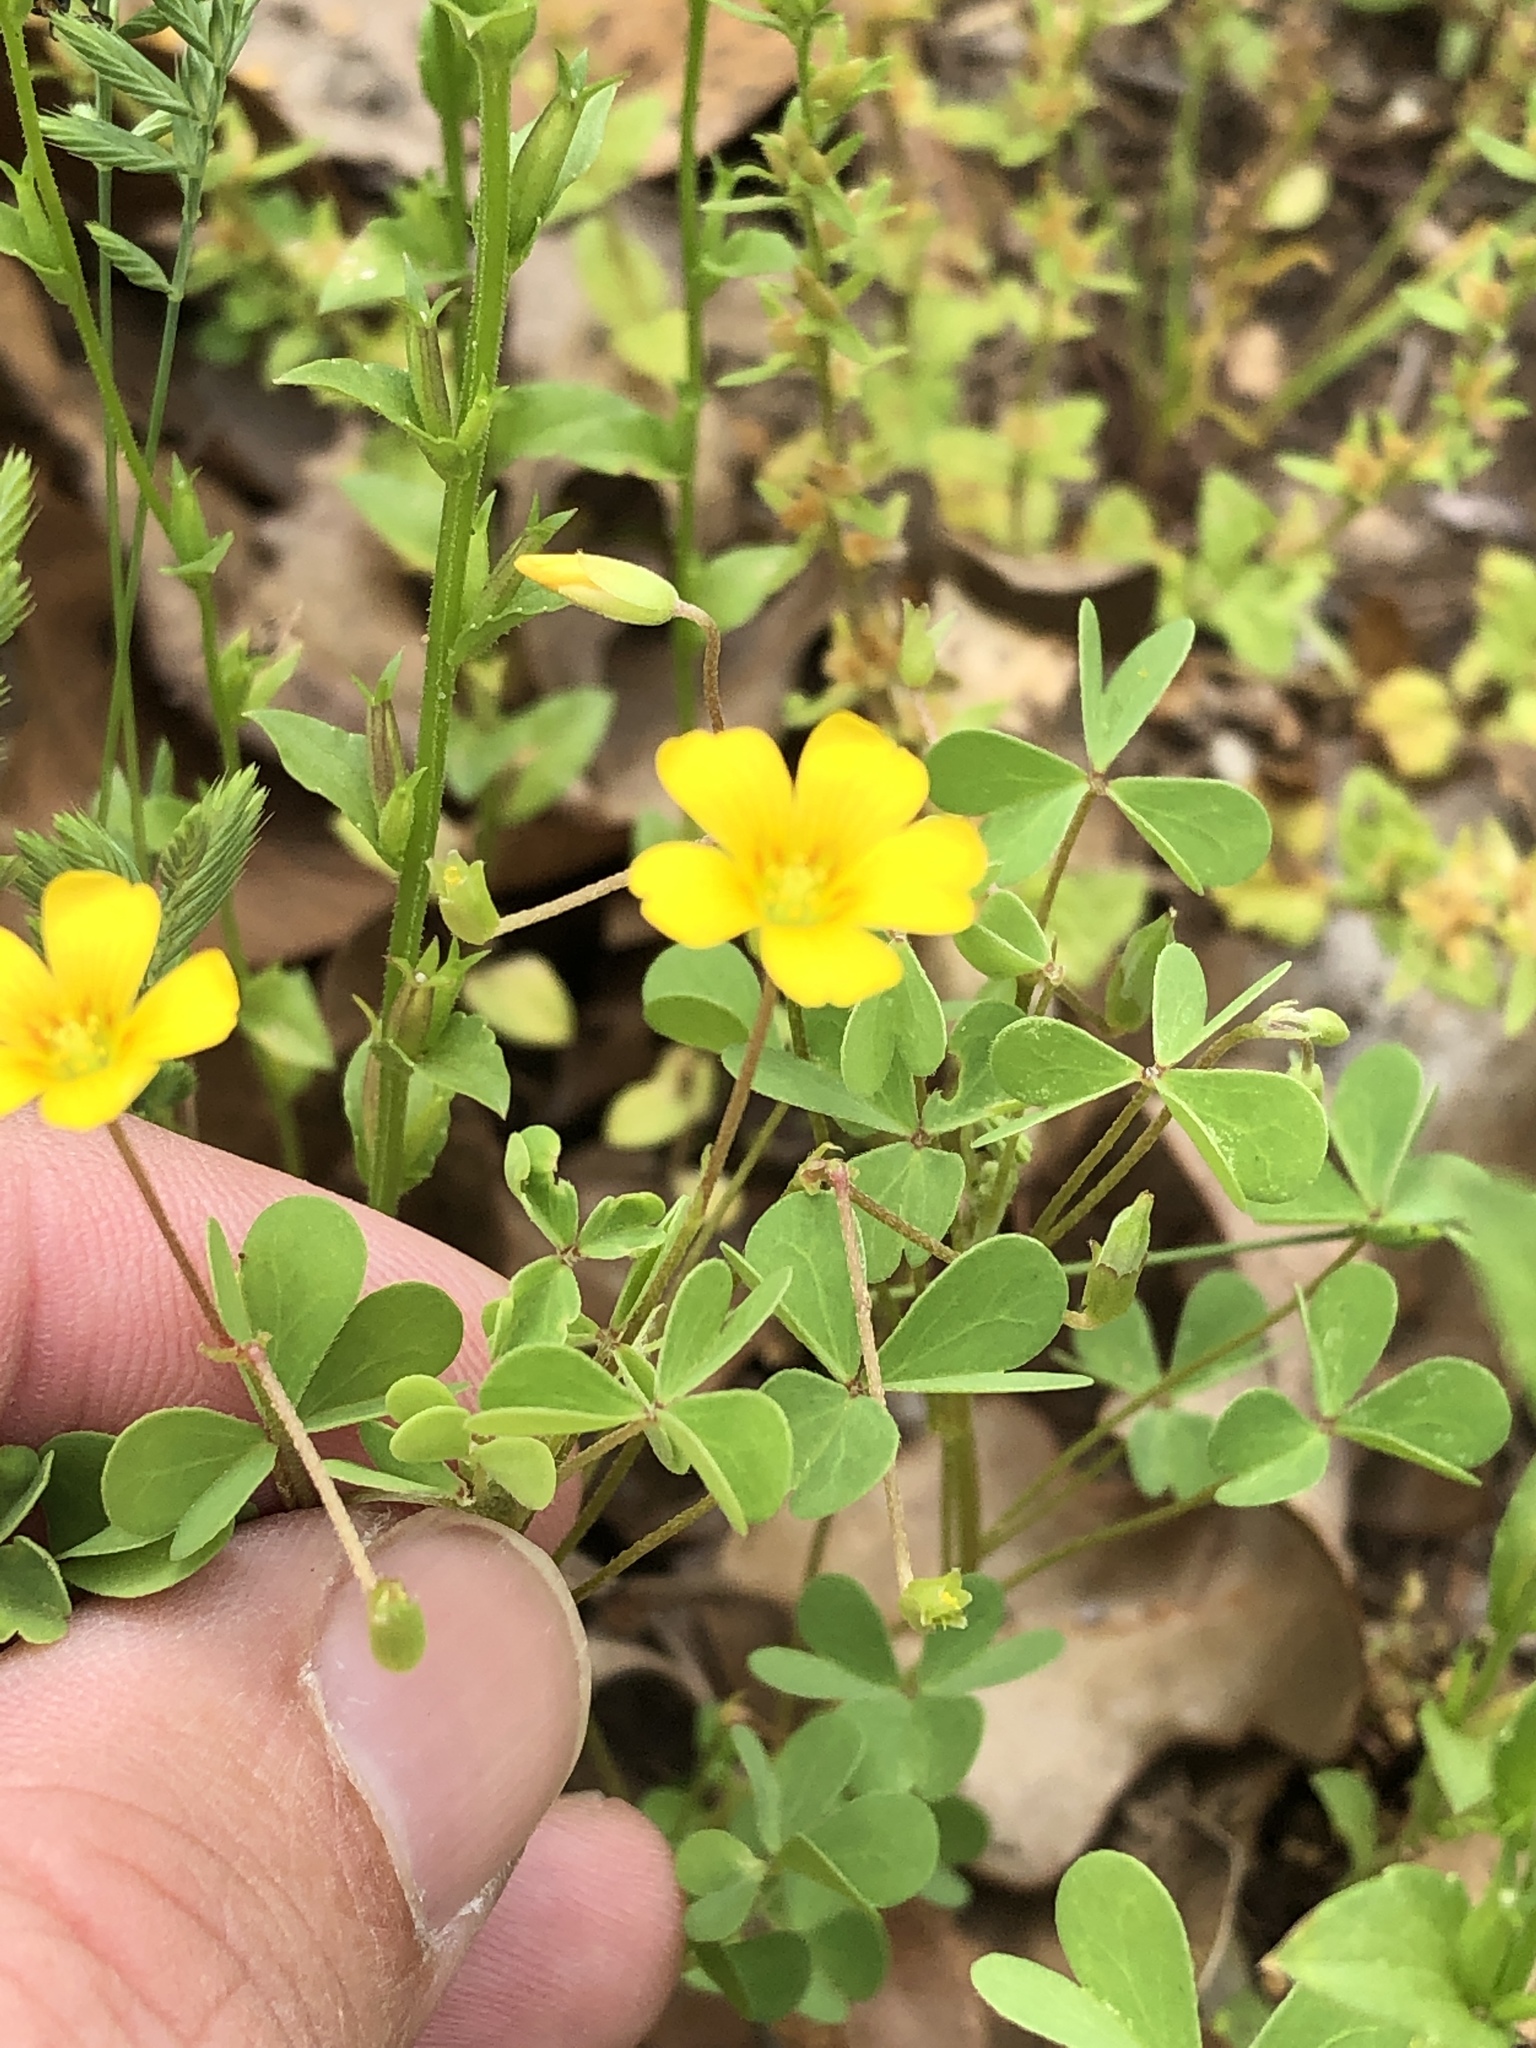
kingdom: Plantae
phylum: Tracheophyta
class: Magnoliopsida
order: Oxalidales
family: Oxalidaceae
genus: Oxalis
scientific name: Oxalis dillenii
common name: Sussex yellow-sorrel
